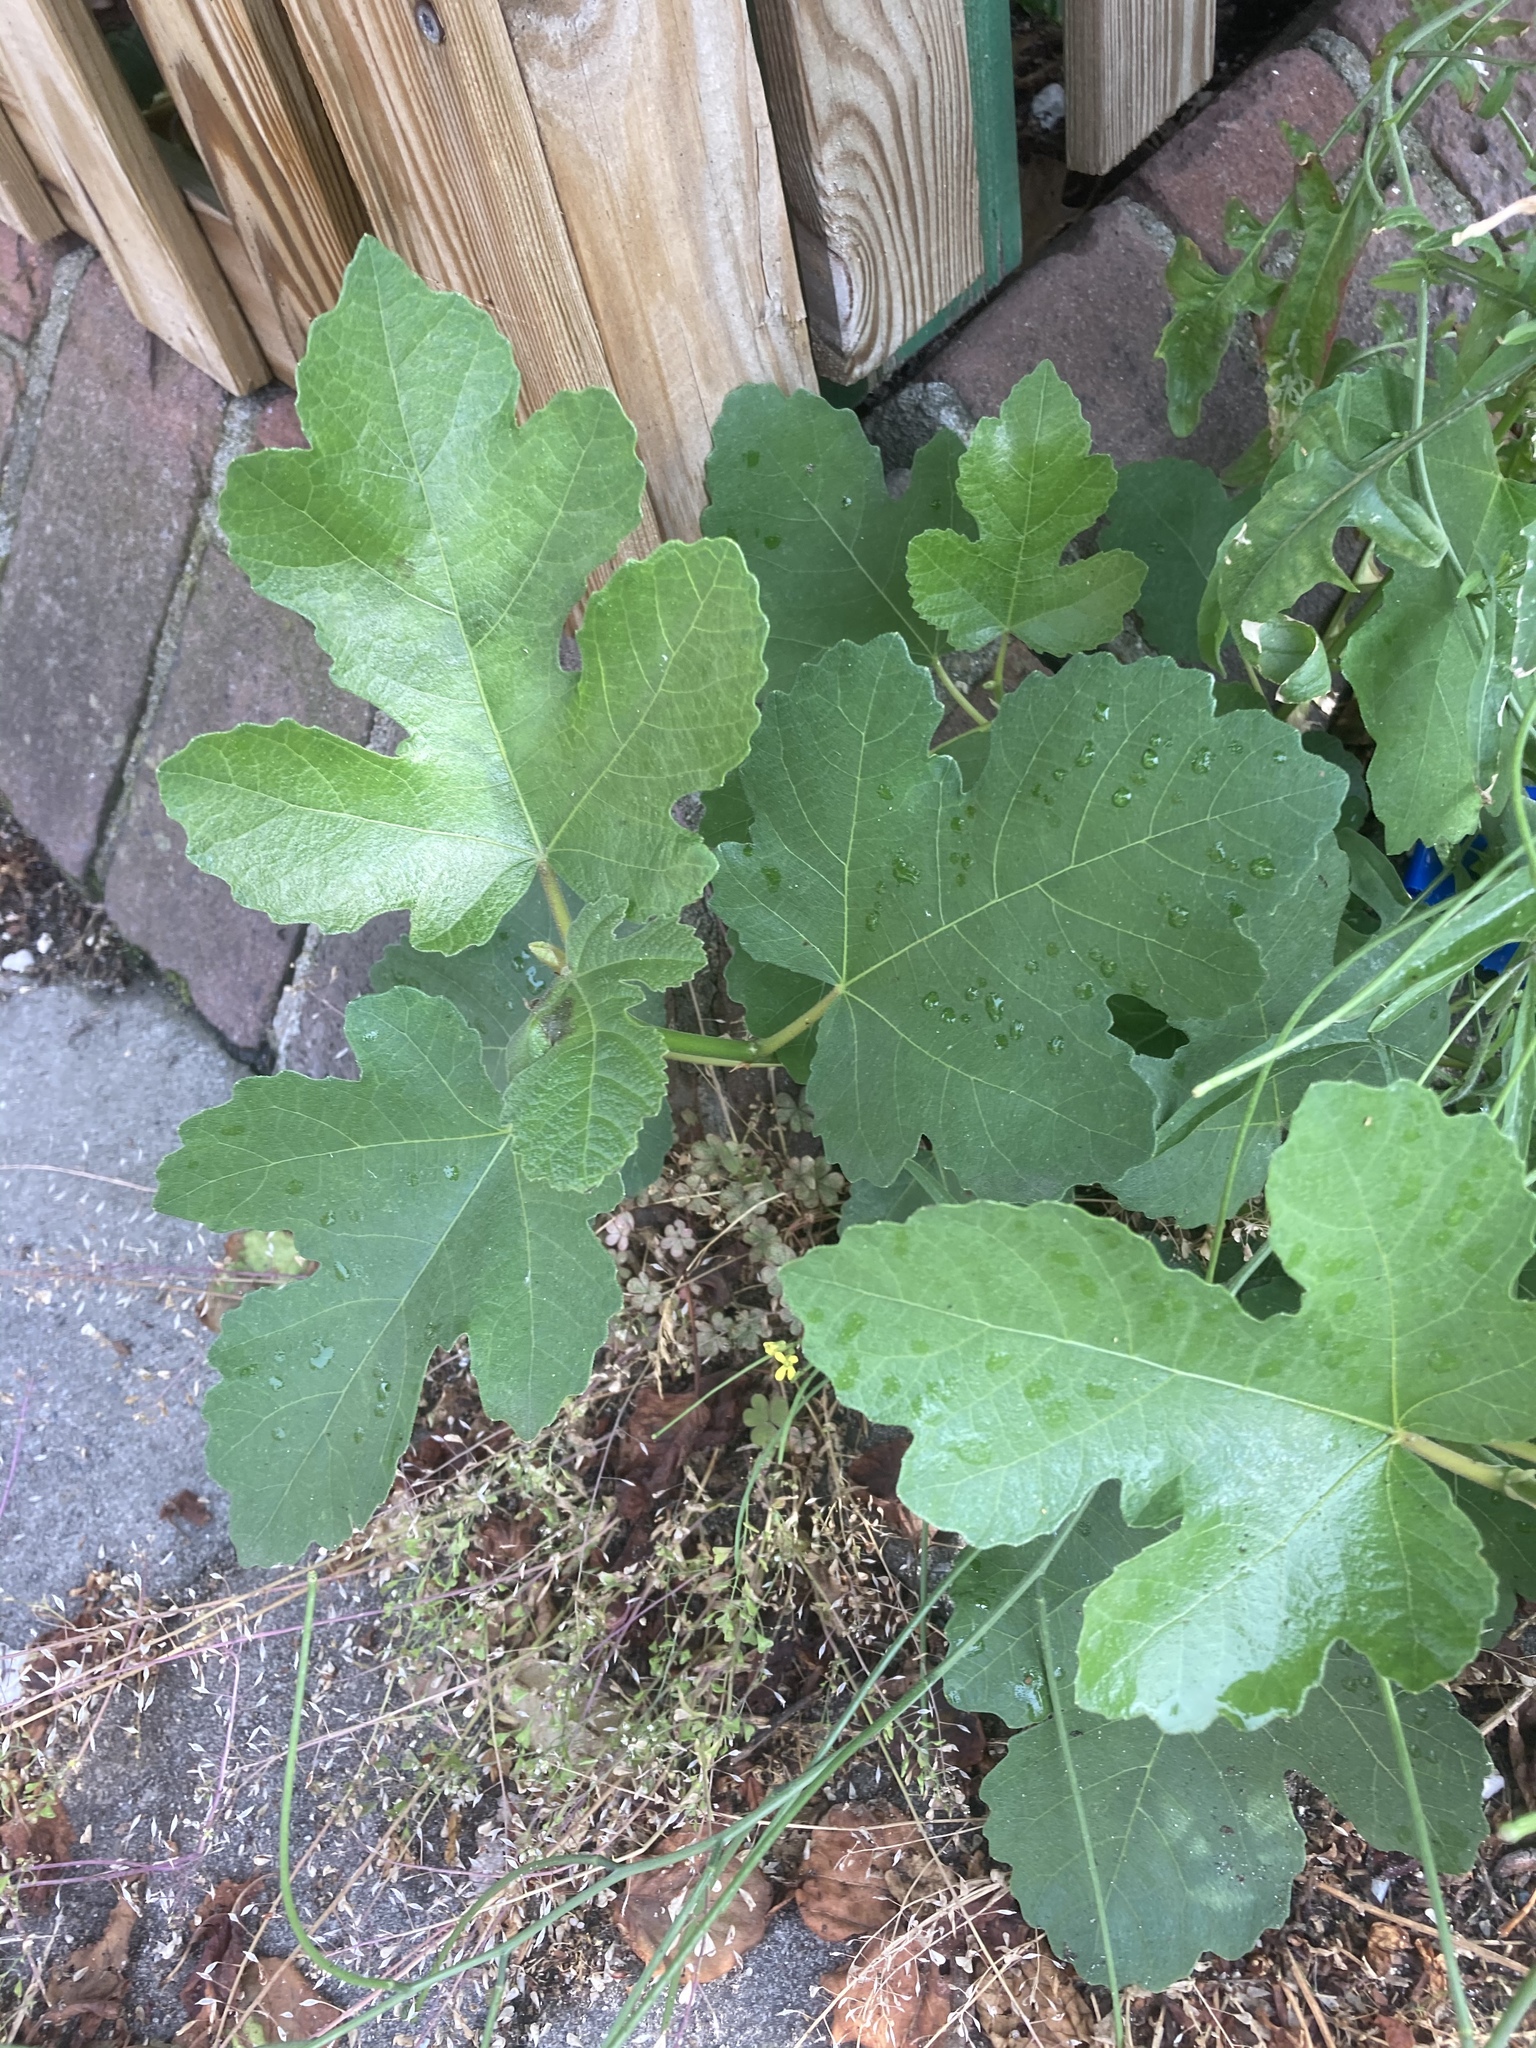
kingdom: Plantae
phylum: Tracheophyta
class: Magnoliopsida
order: Rosales
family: Moraceae
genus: Ficus
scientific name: Ficus carica
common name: Fig
